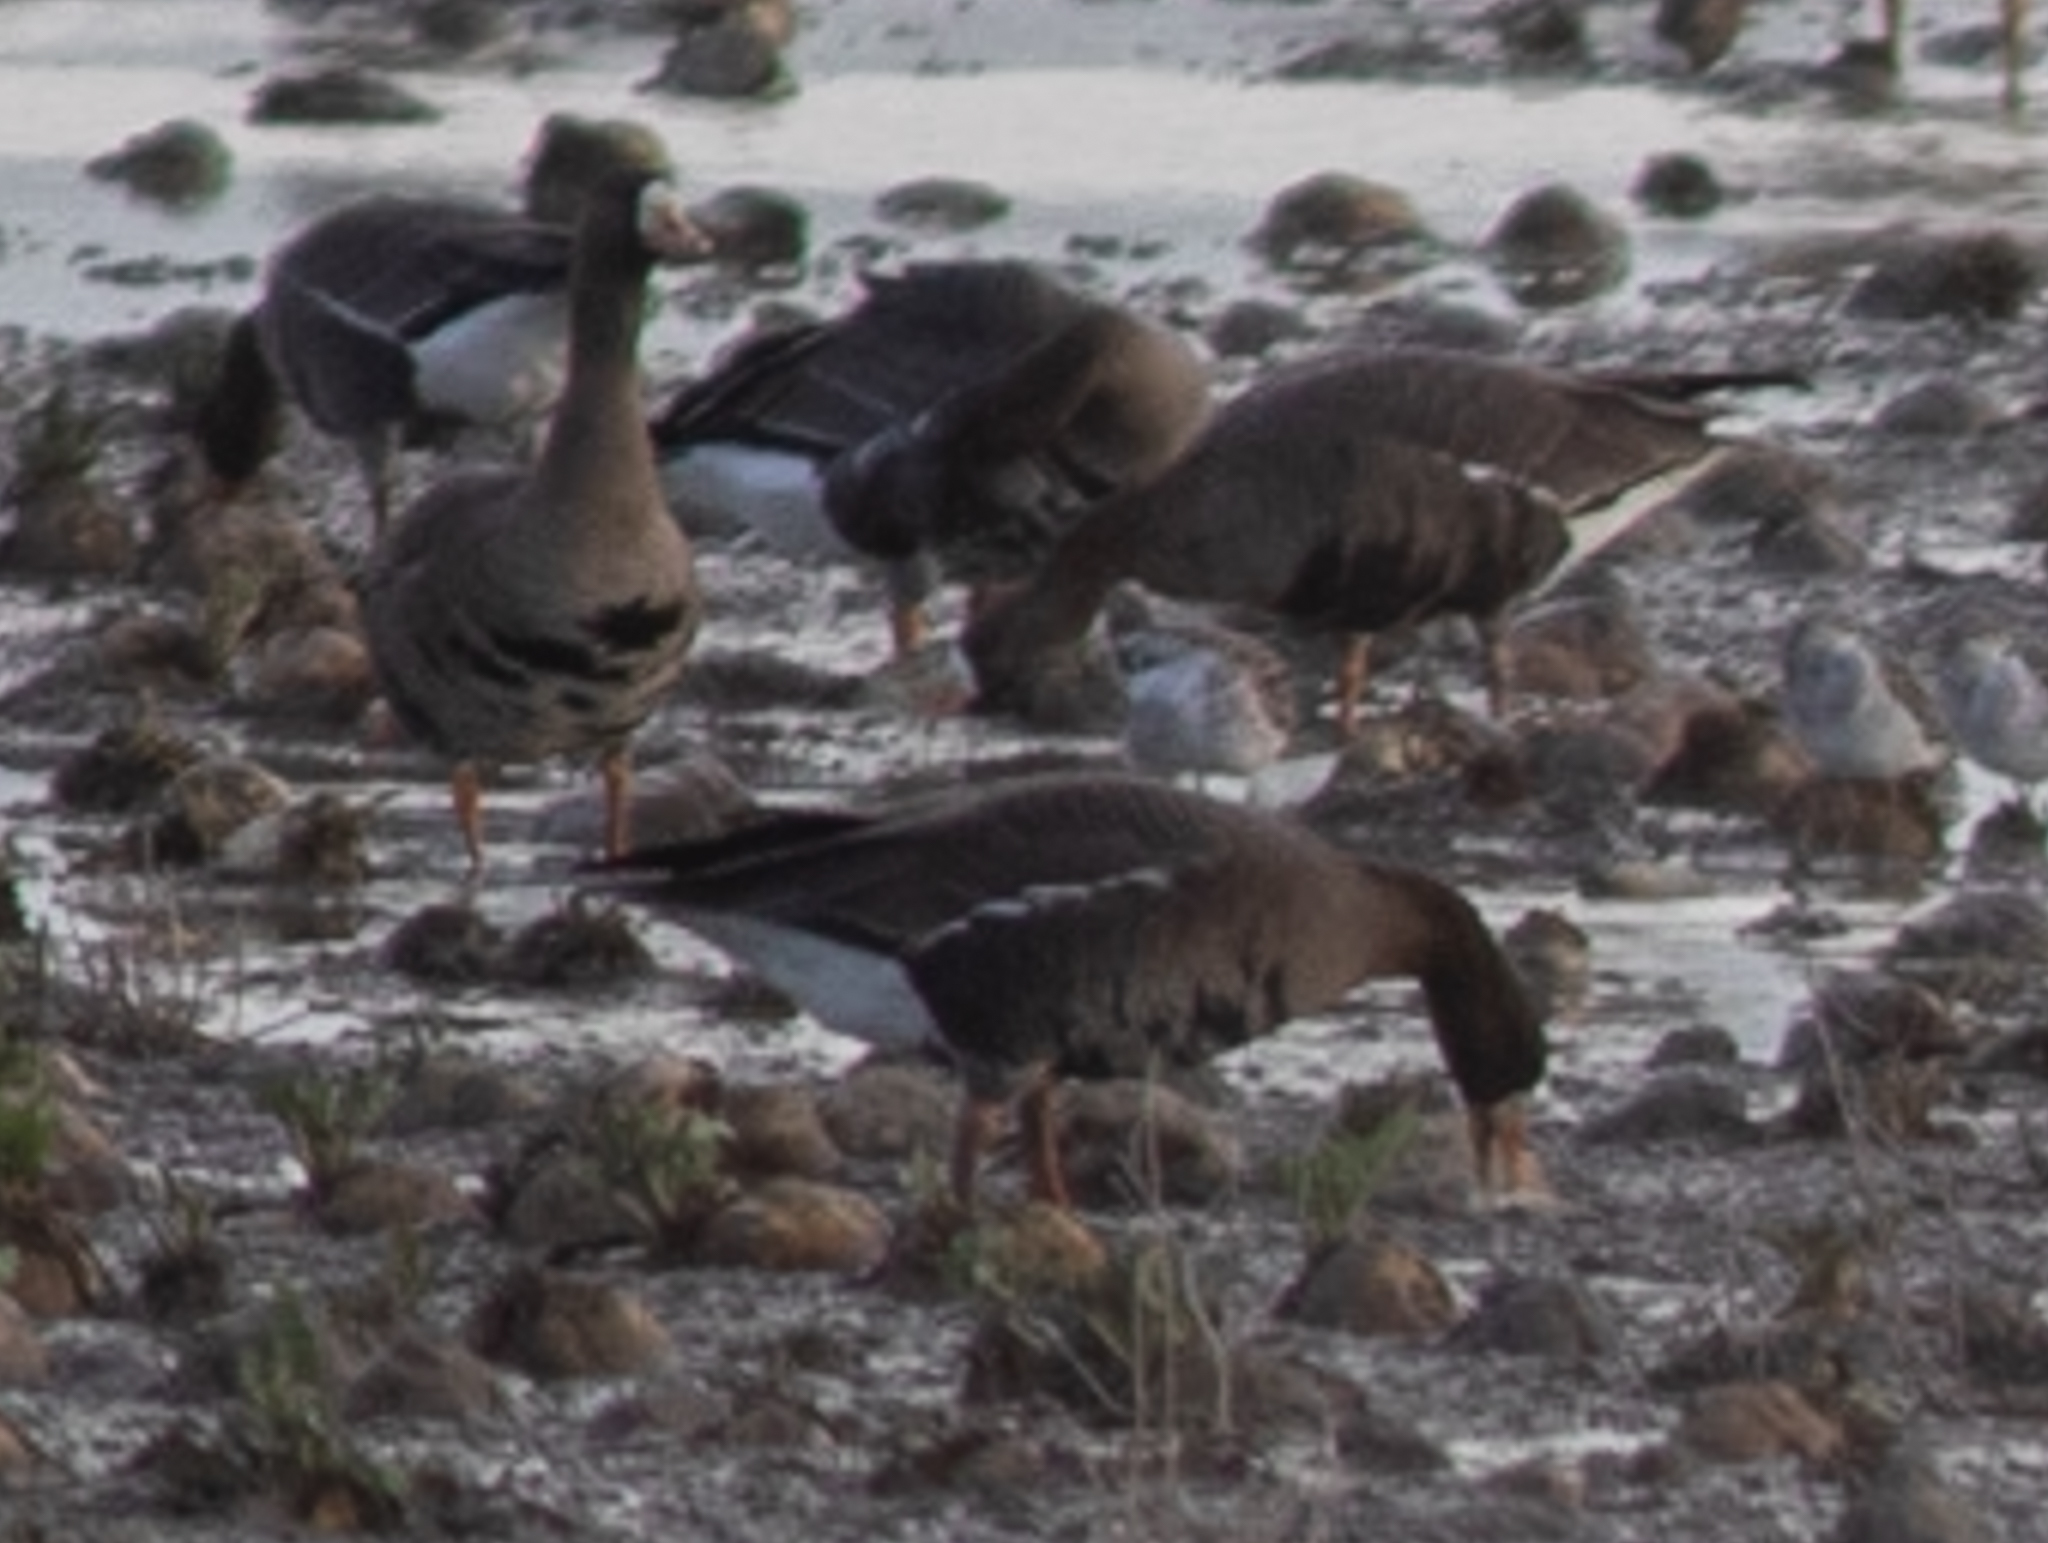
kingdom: Animalia
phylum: Chordata
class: Aves
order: Anseriformes
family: Anatidae
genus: Anser
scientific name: Anser albifrons
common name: Greater white-fronted goose
